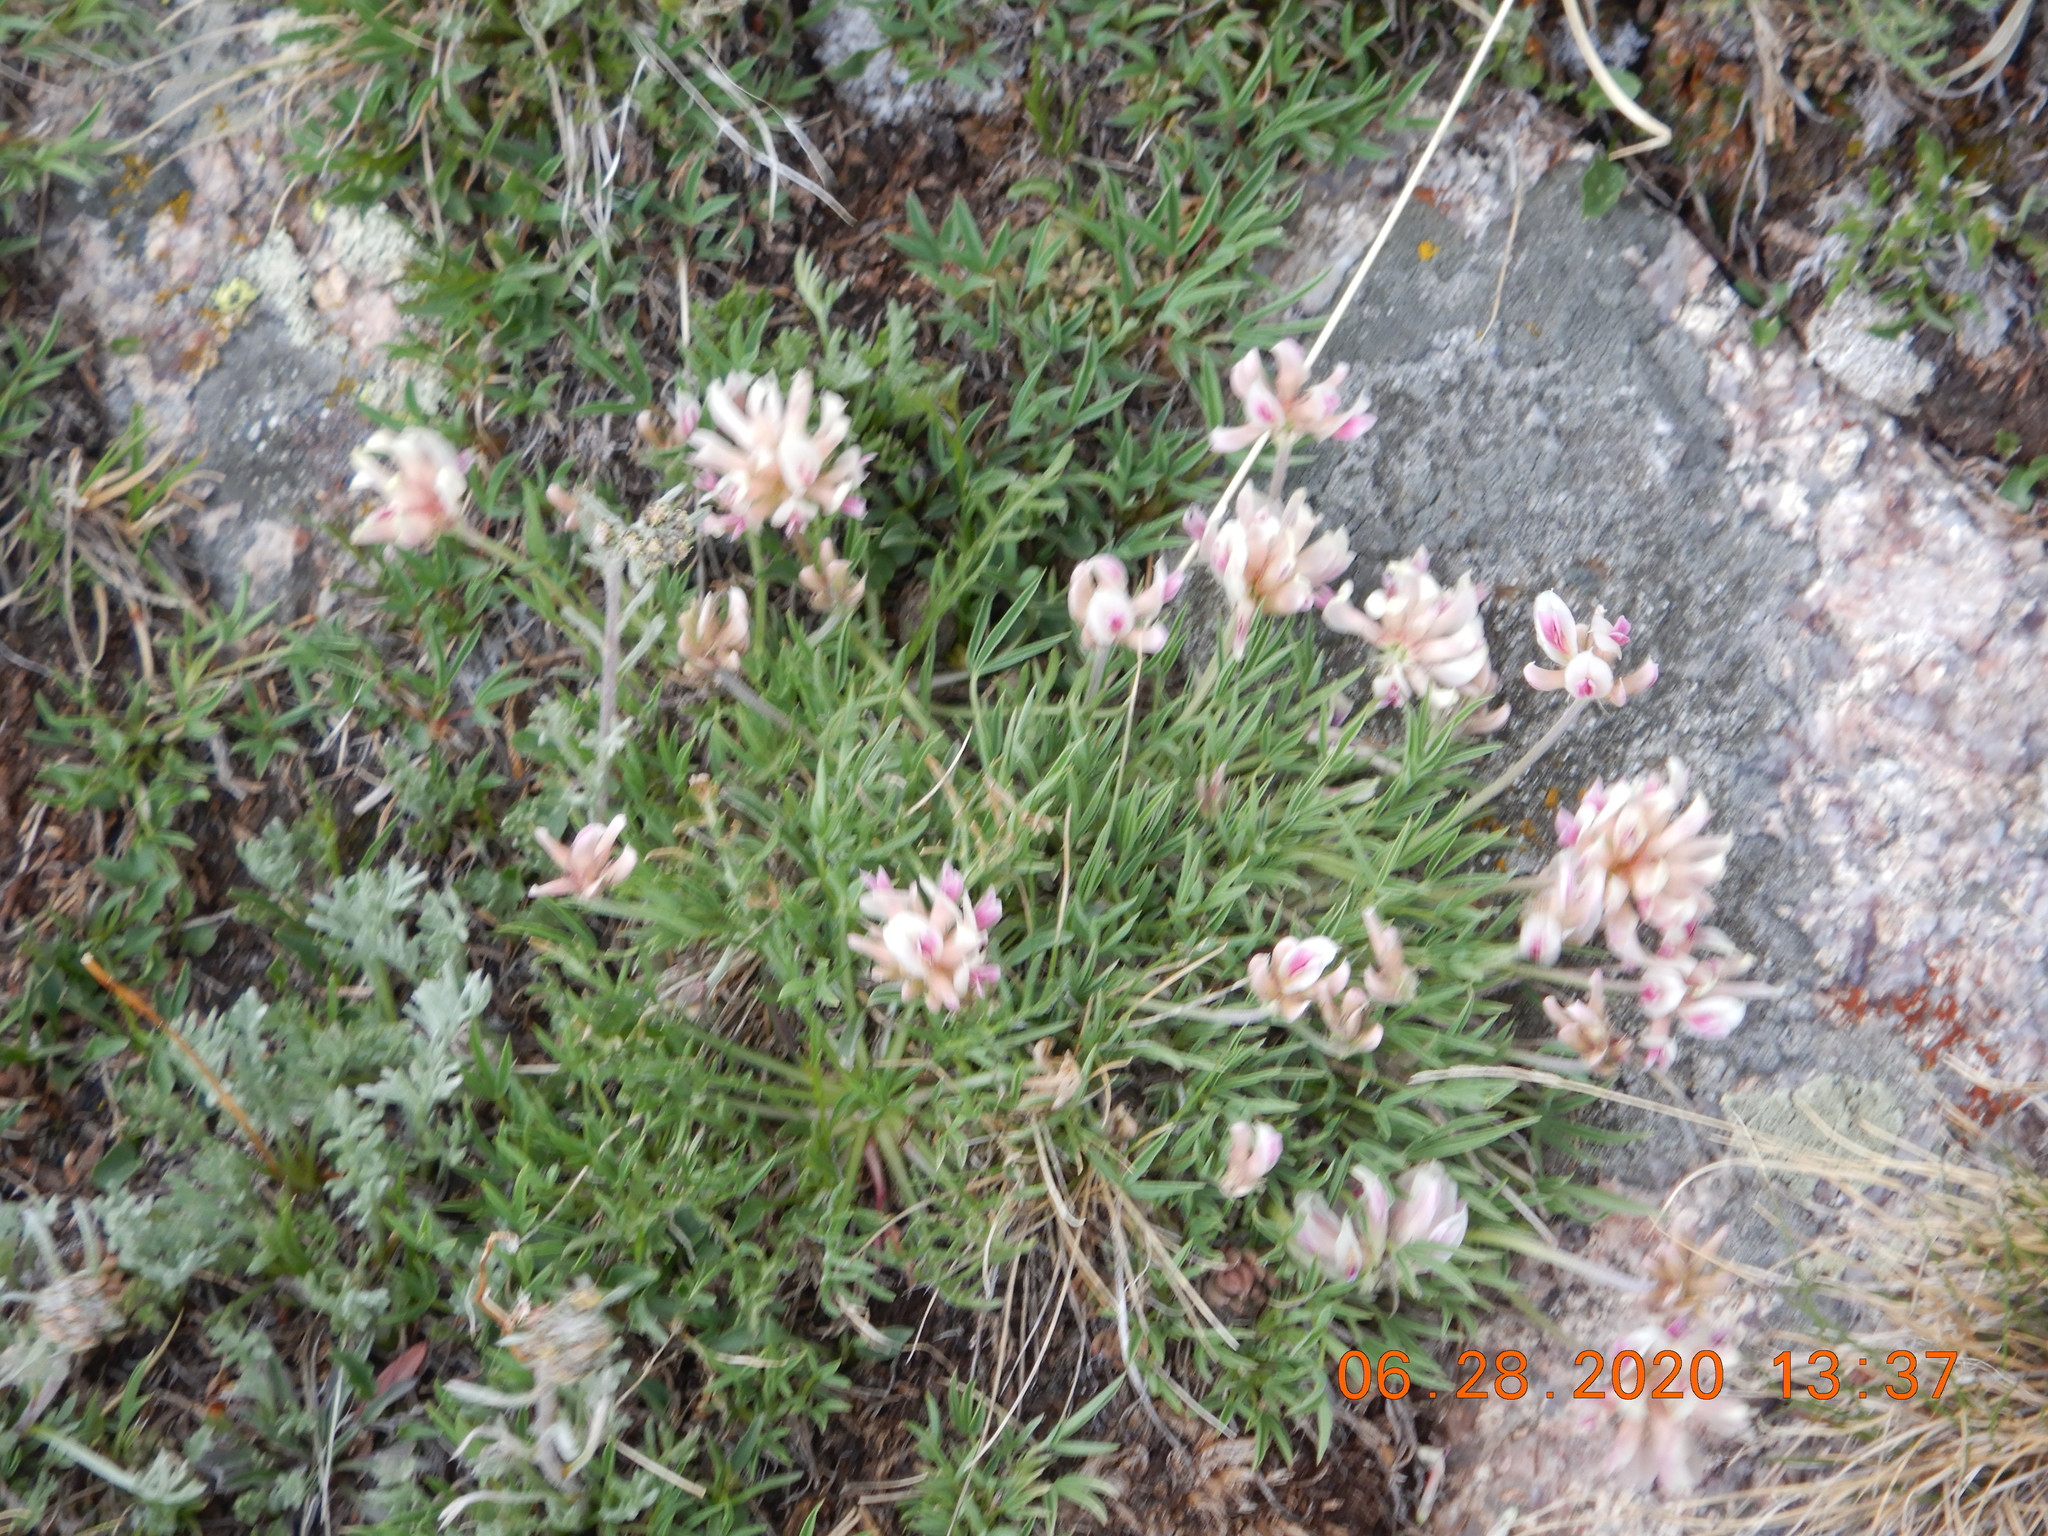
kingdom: Plantae
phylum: Tracheophyta
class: Magnoliopsida
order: Fabales
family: Fabaceae
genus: Trifolium
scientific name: Trifolium dasyphyllum
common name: Whip-root clover
